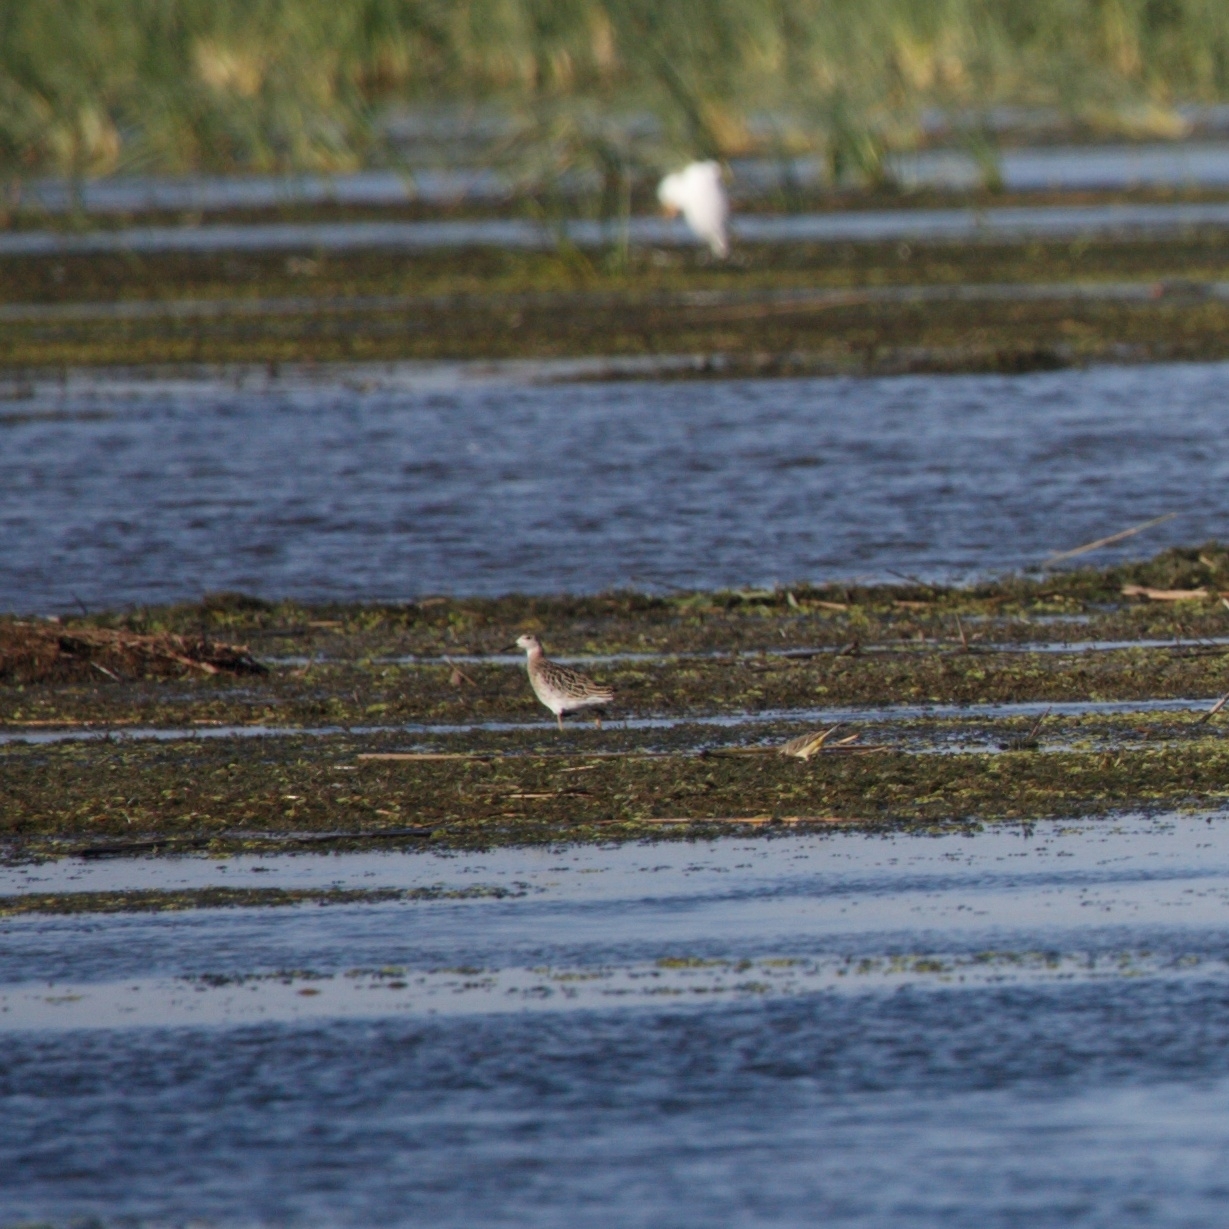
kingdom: Animalia
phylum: Chordata
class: Aves
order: Charadriiformes
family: Scolopacidae
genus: Calidris
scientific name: Calidris pugnax
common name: Ruff
